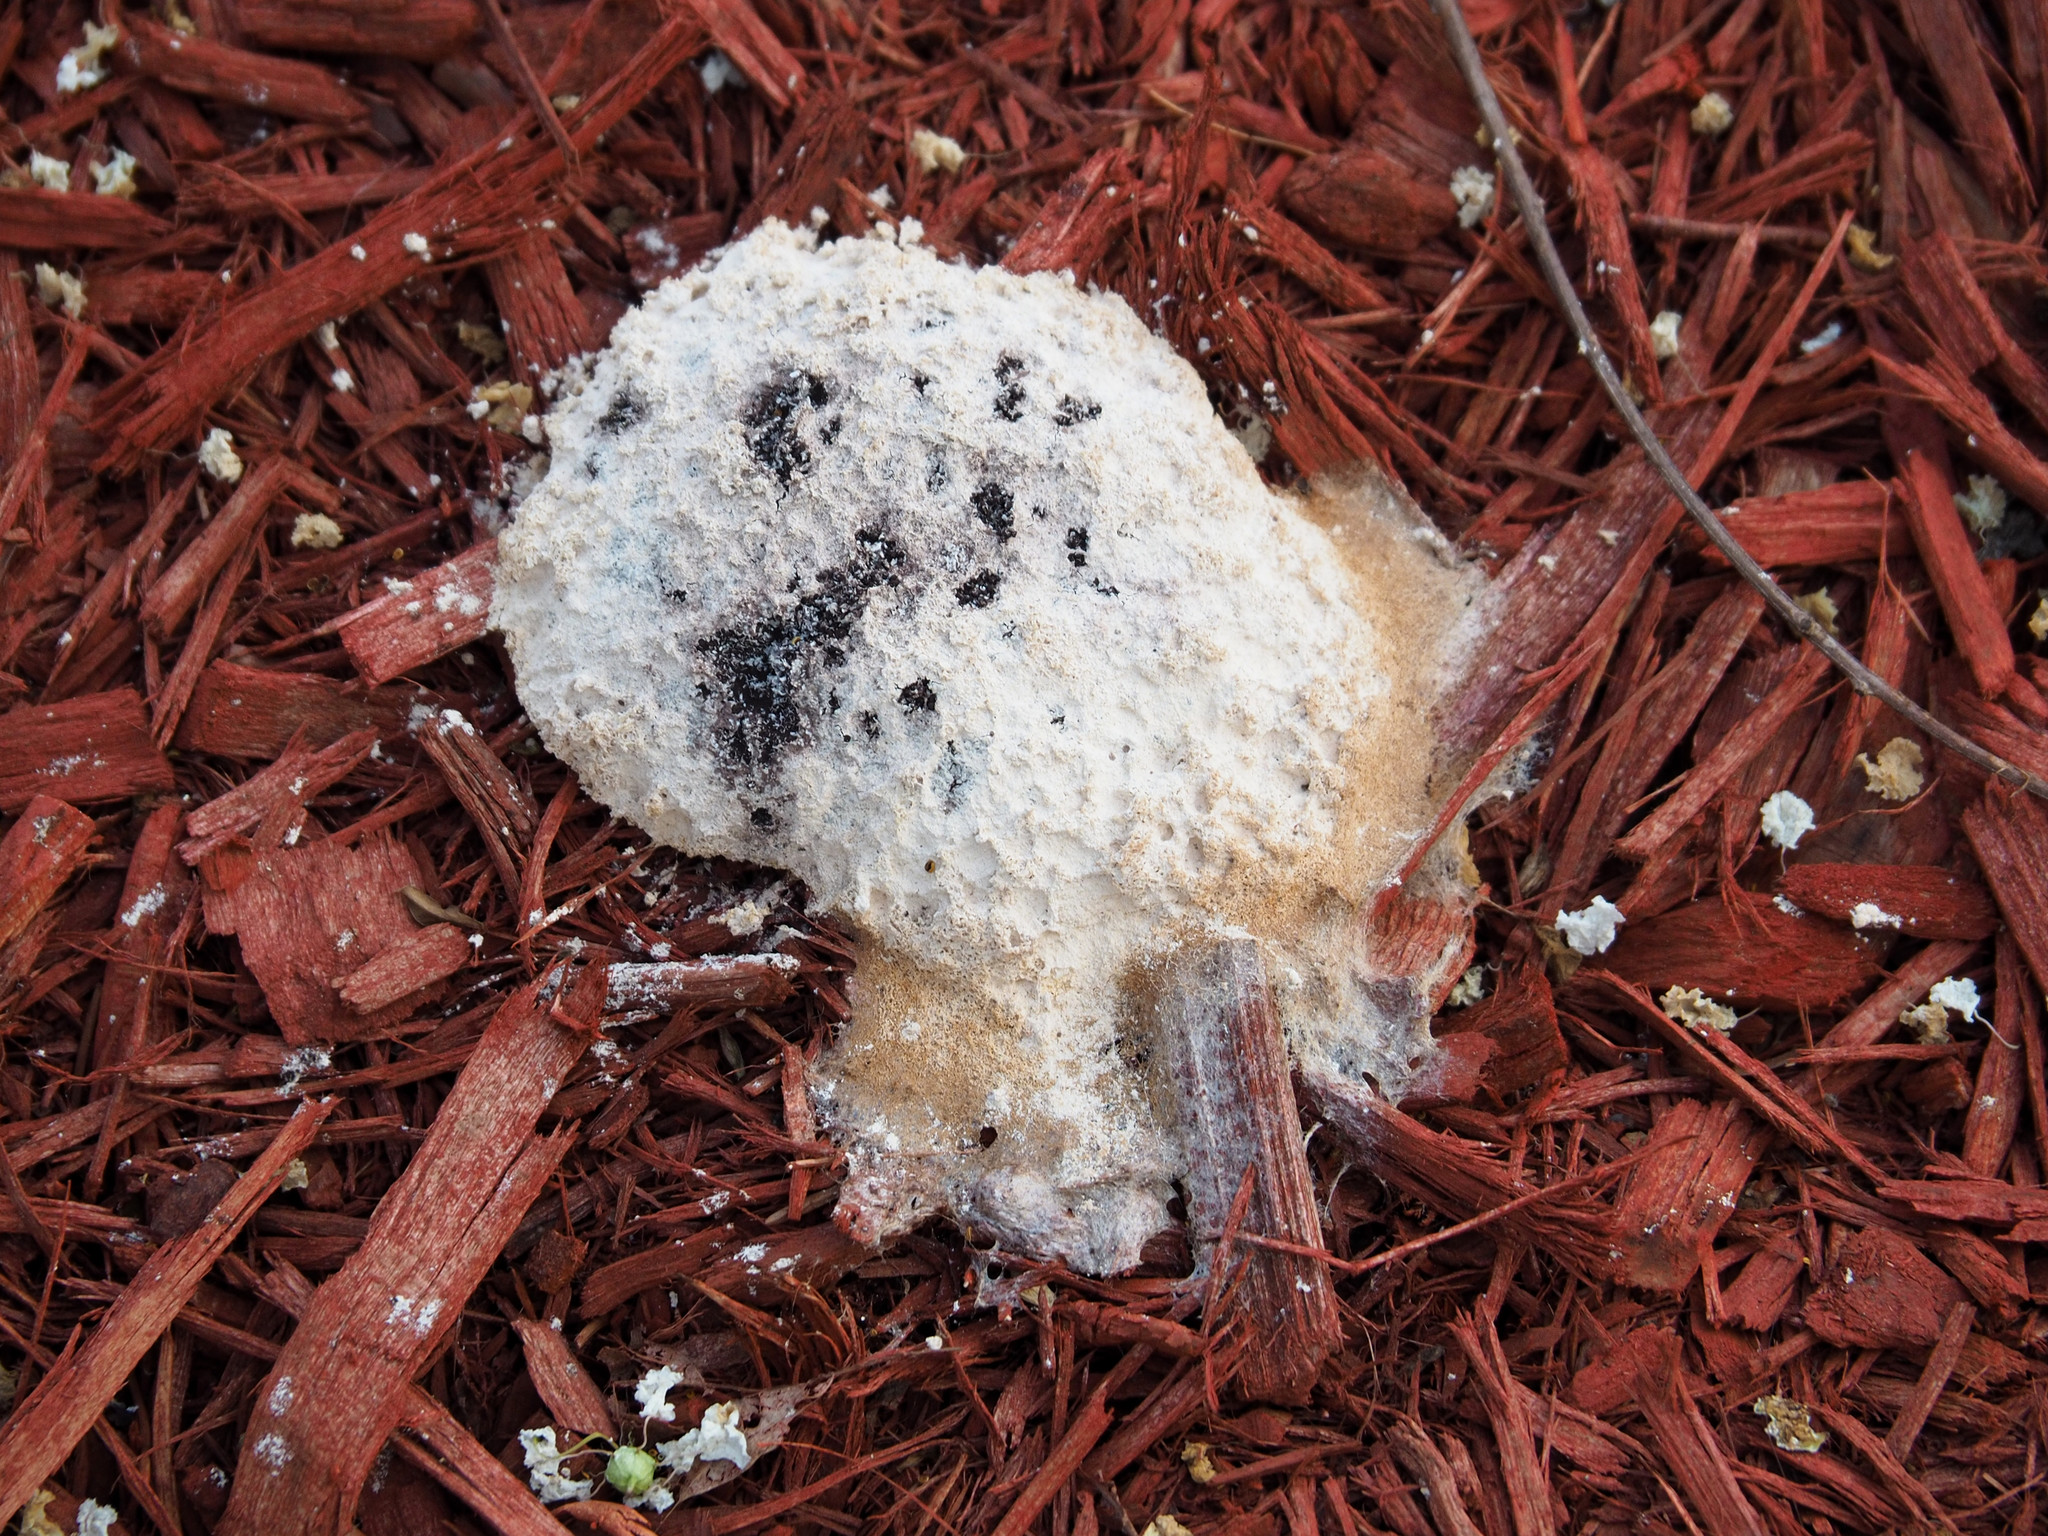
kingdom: Protozoa
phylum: Mycetozoa
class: Myxomycetes
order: Physarales
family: Physaraceae
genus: Fuligo
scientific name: Fuligo septica
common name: Dog vomit slime mold
